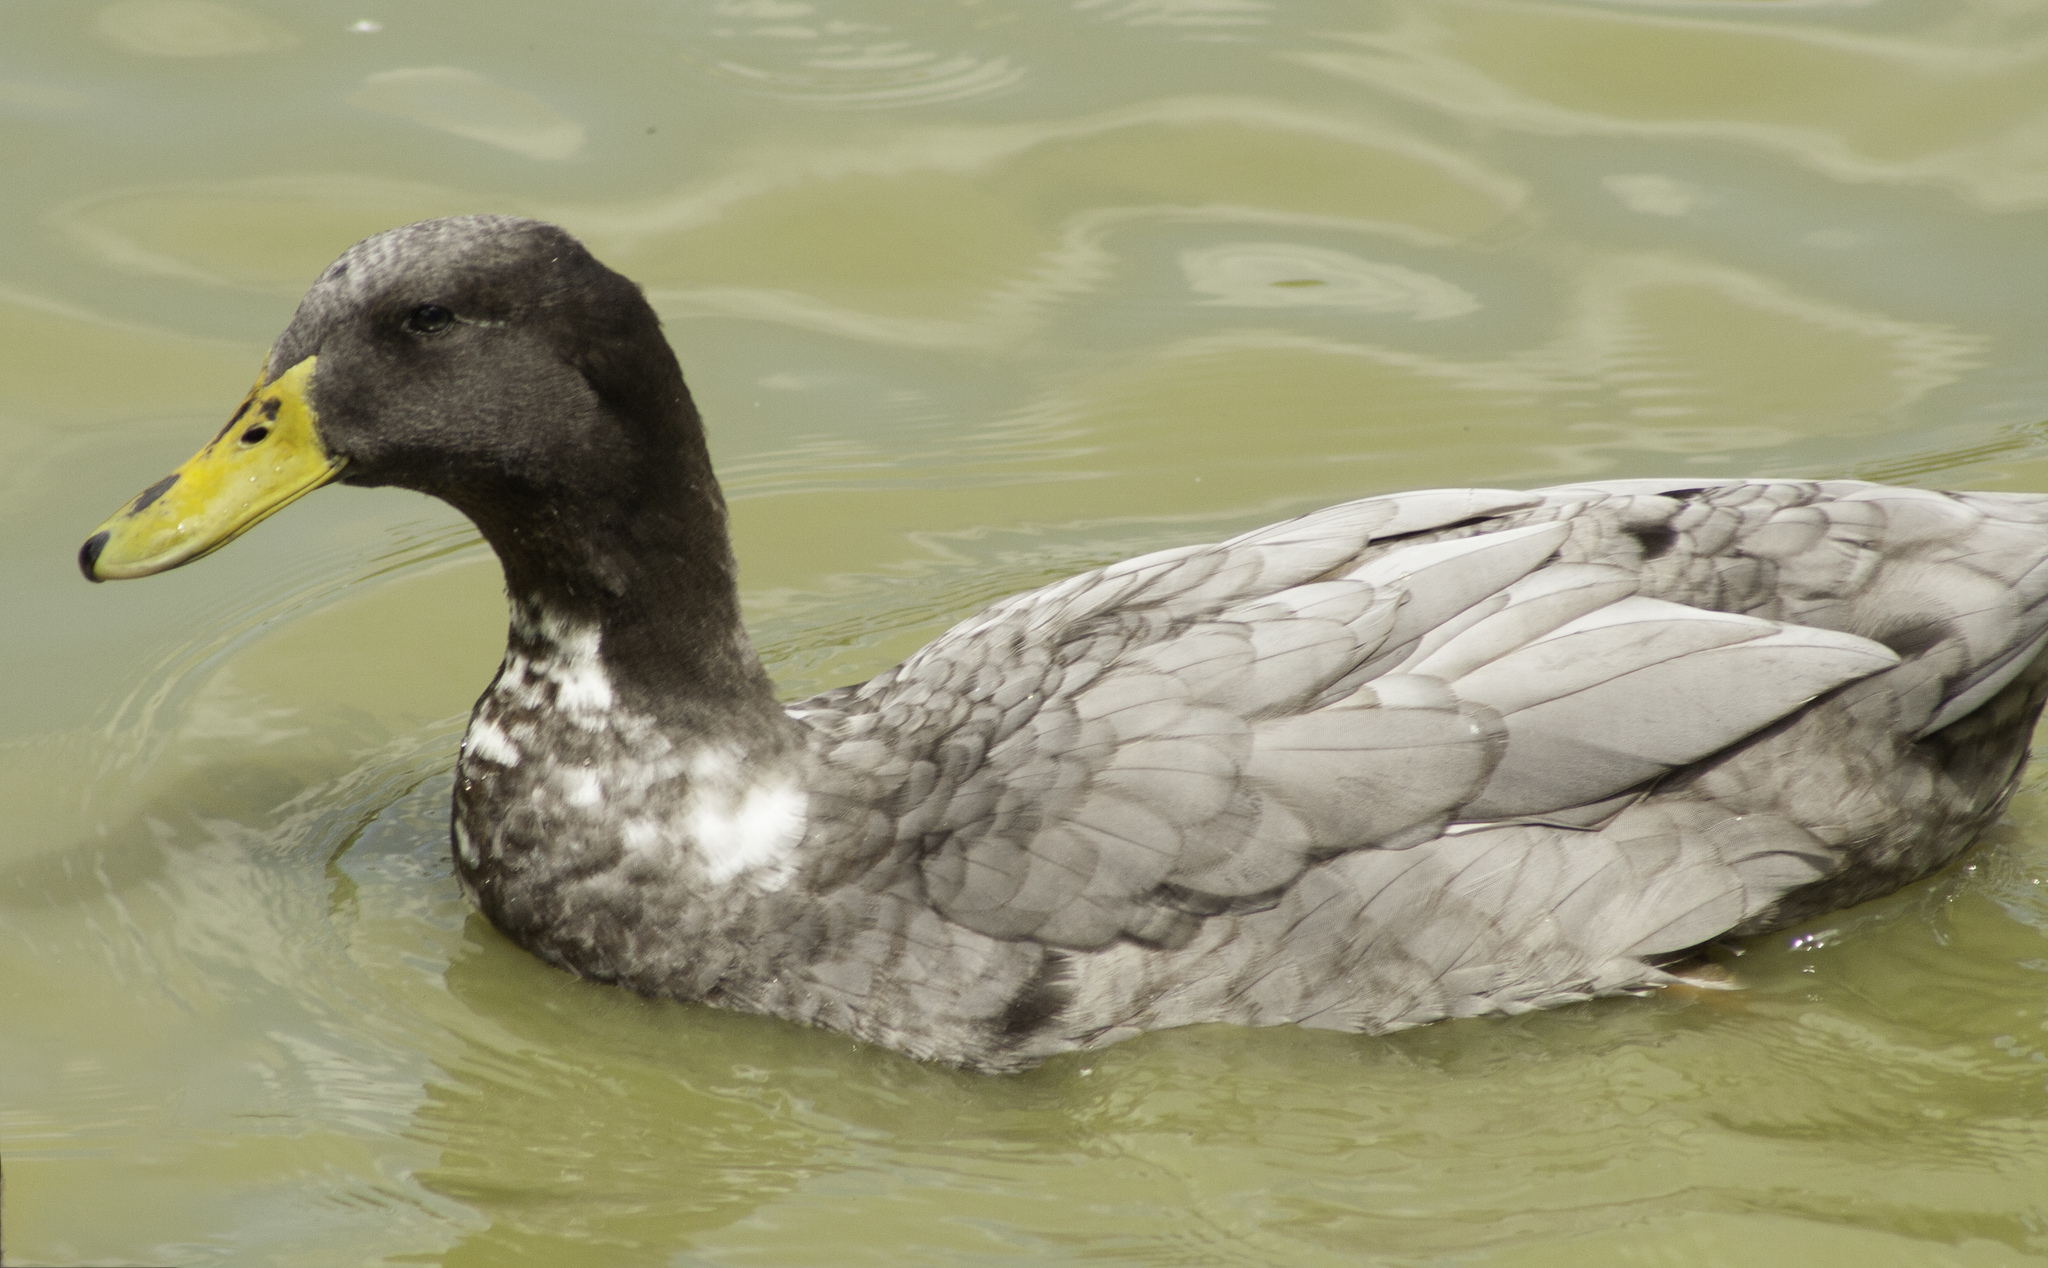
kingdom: Animalia
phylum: Chordata
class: Aves
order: Anseriformes
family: Anatidae
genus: Anas
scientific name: Anas platyrhynchos
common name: Mallard
